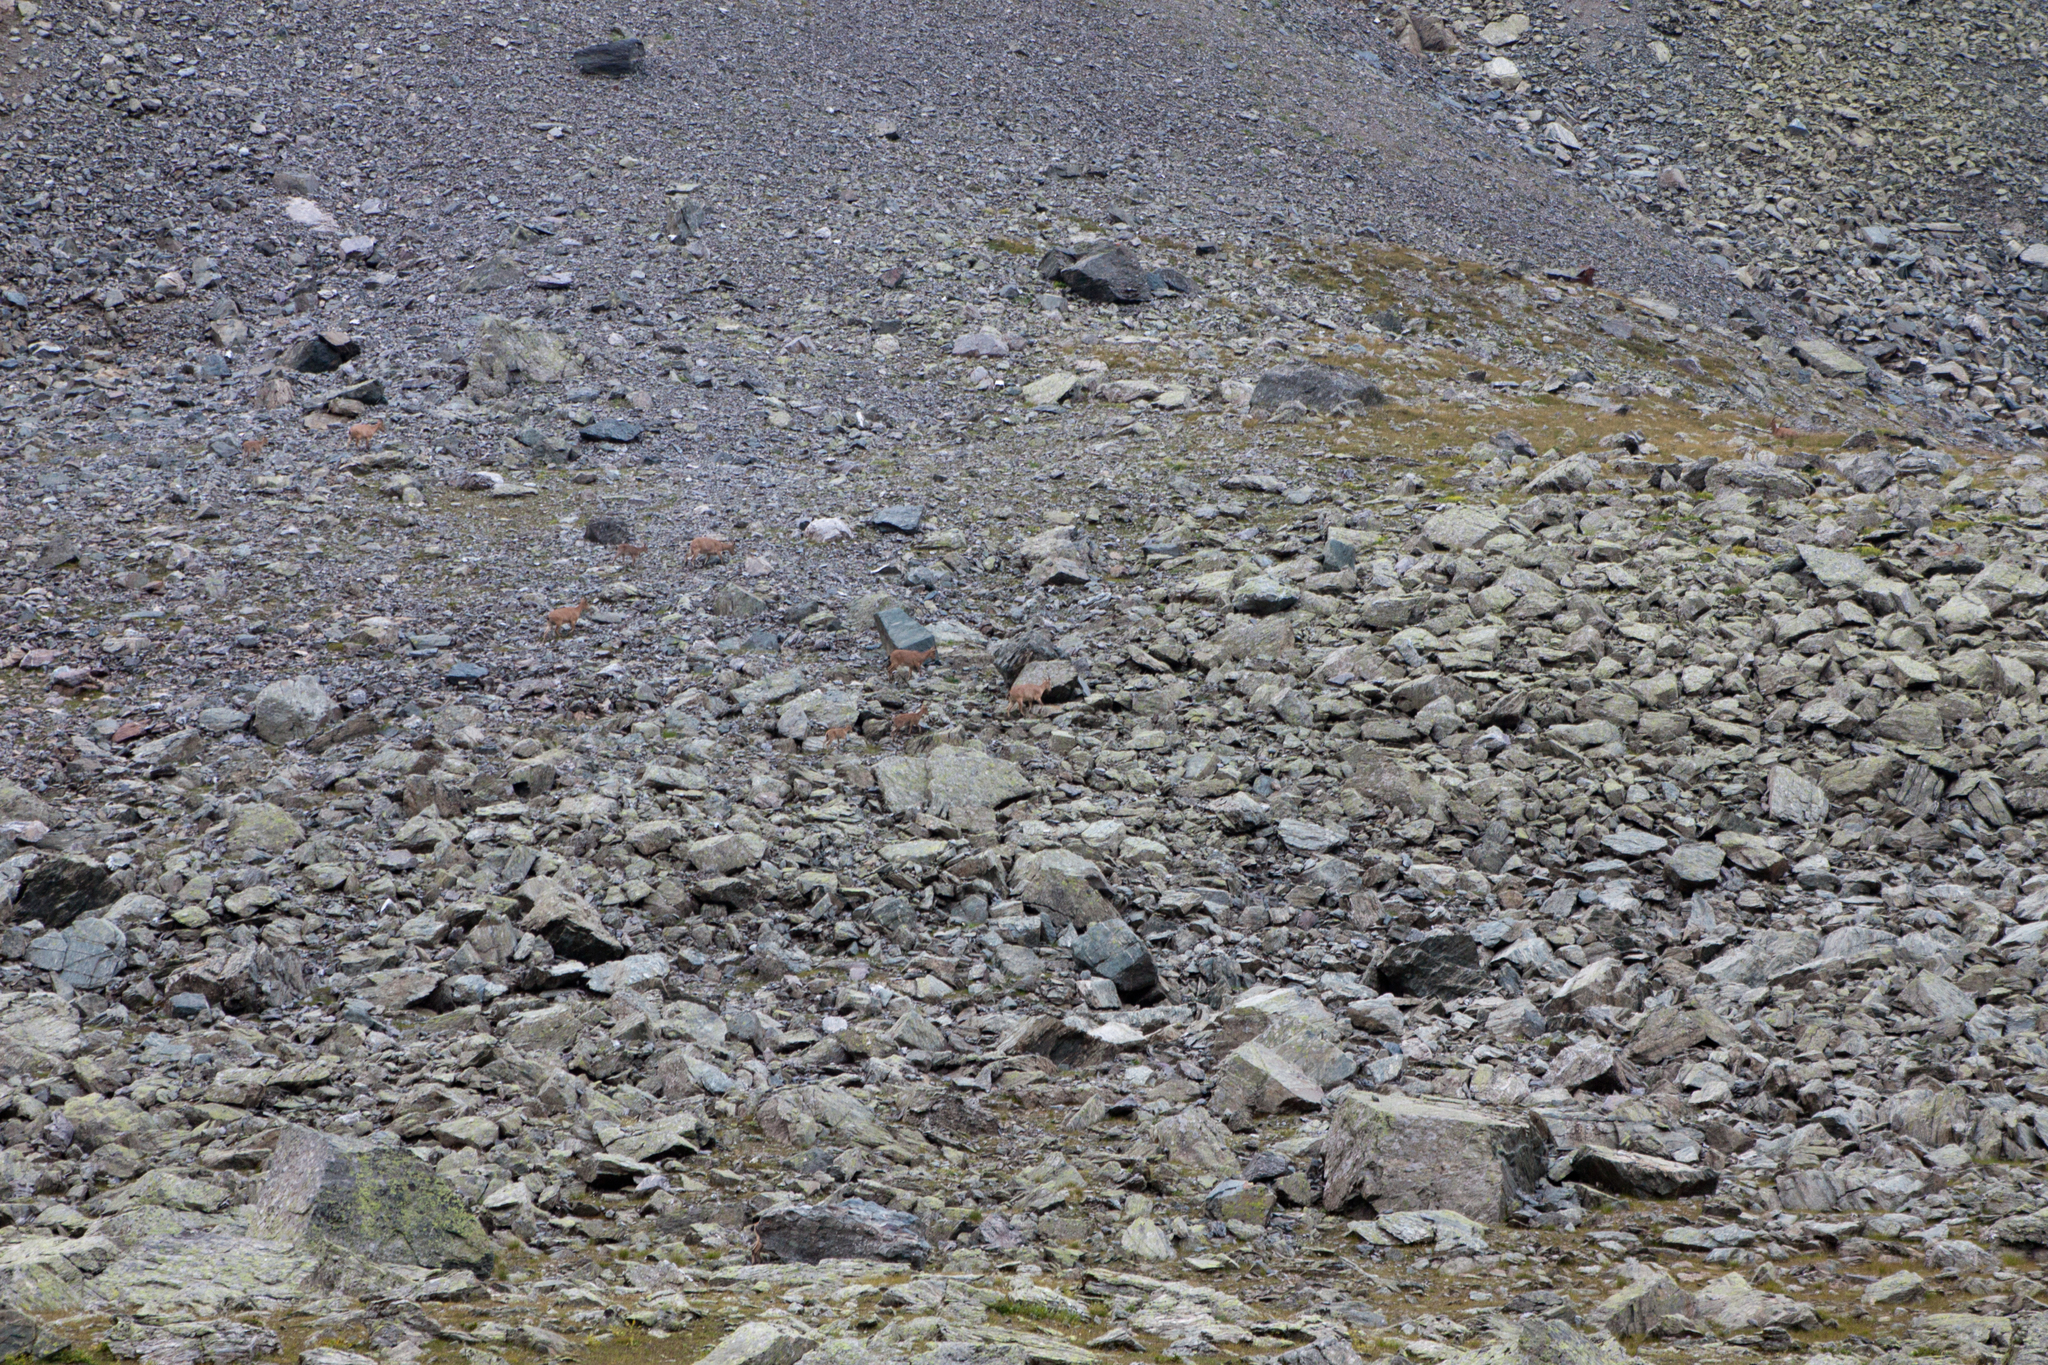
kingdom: Animalia
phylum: Chordata
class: Mammalia
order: Artiodactyla
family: Bovidae
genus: Capra
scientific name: Capra caucasica
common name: Tur
